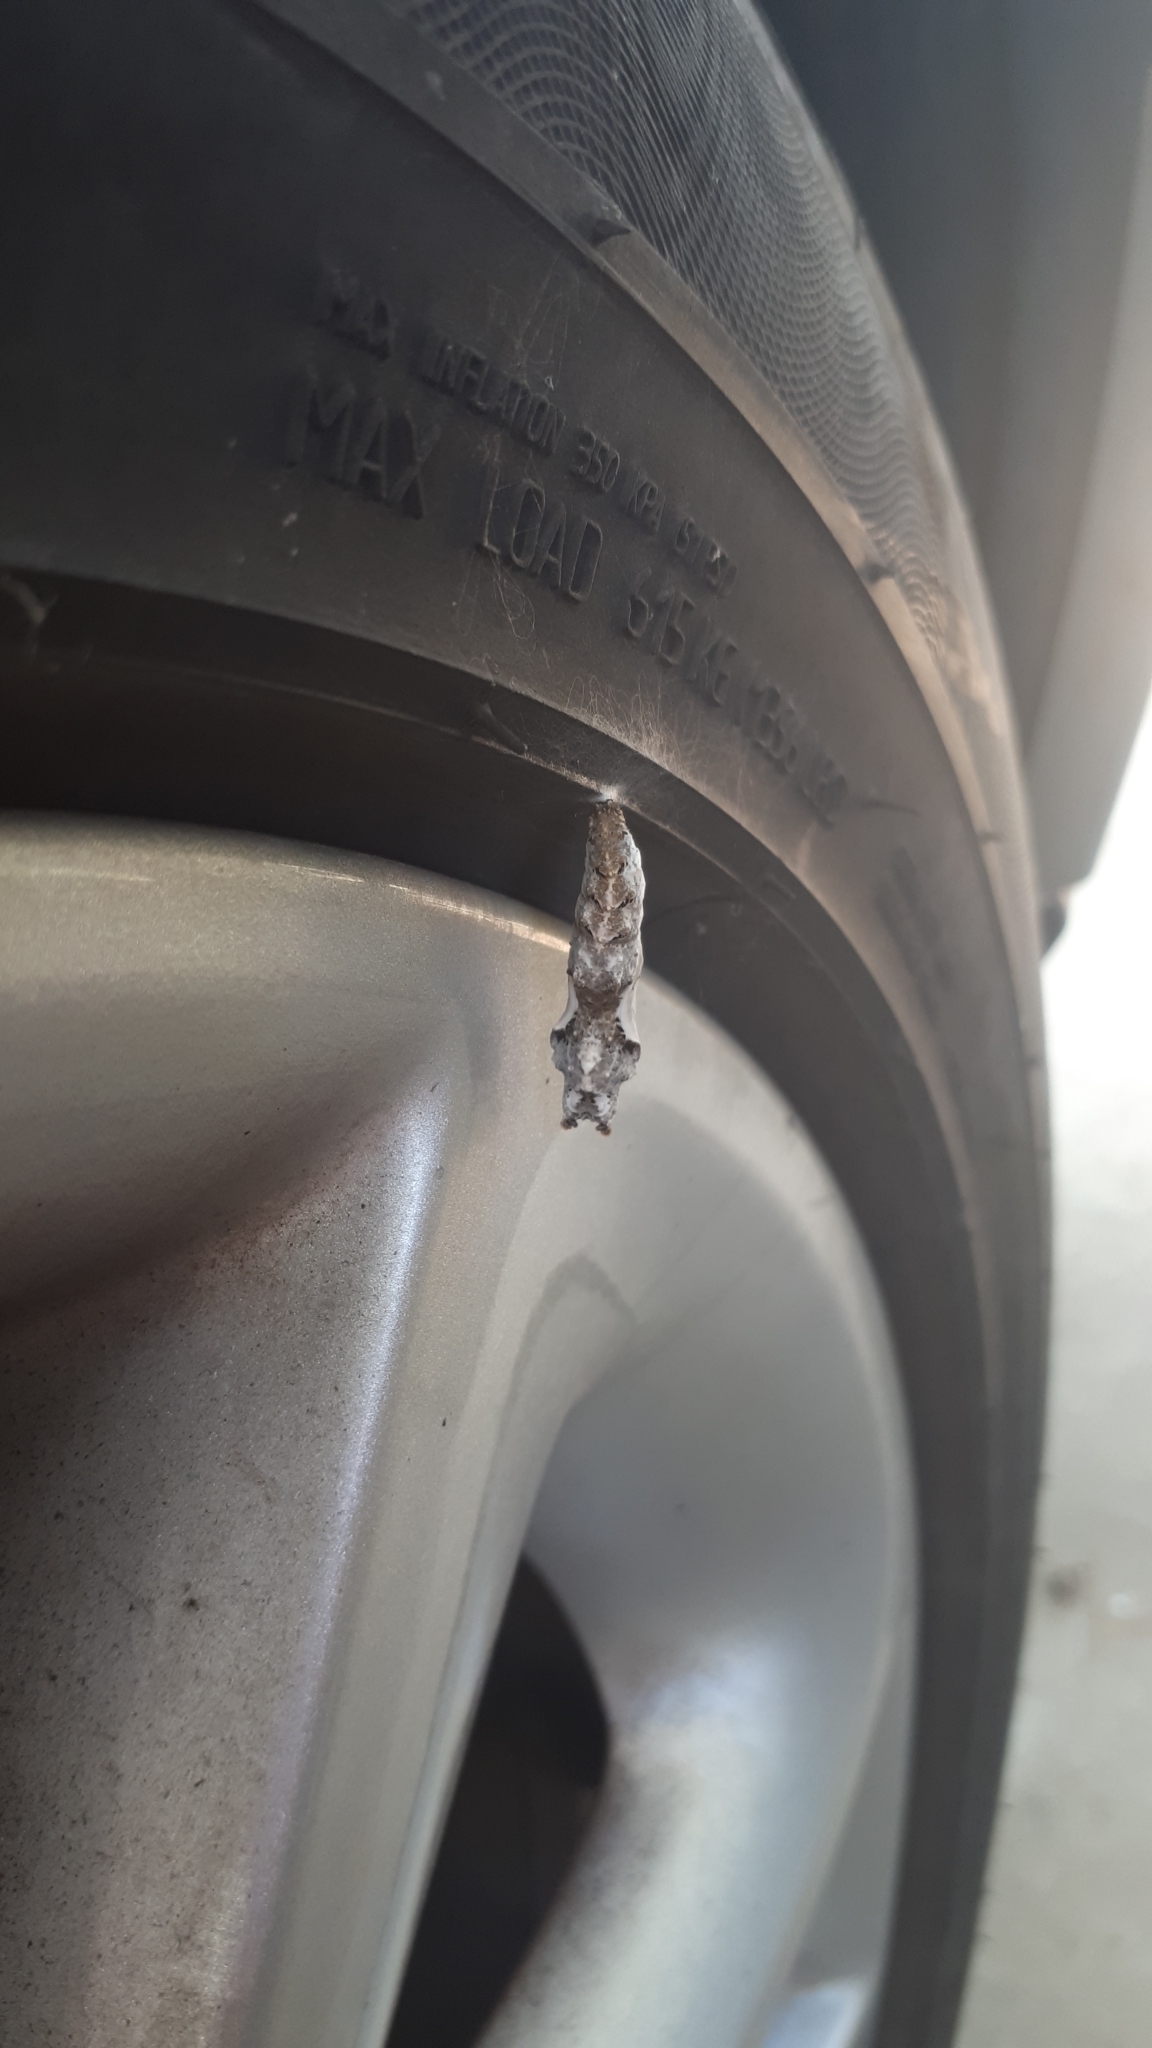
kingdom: Animalia
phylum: Arthropoda
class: Insecta
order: Lepidoptera
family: Nymphalidae
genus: Dione
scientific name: Dione vanillae
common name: Gulf fritillary
